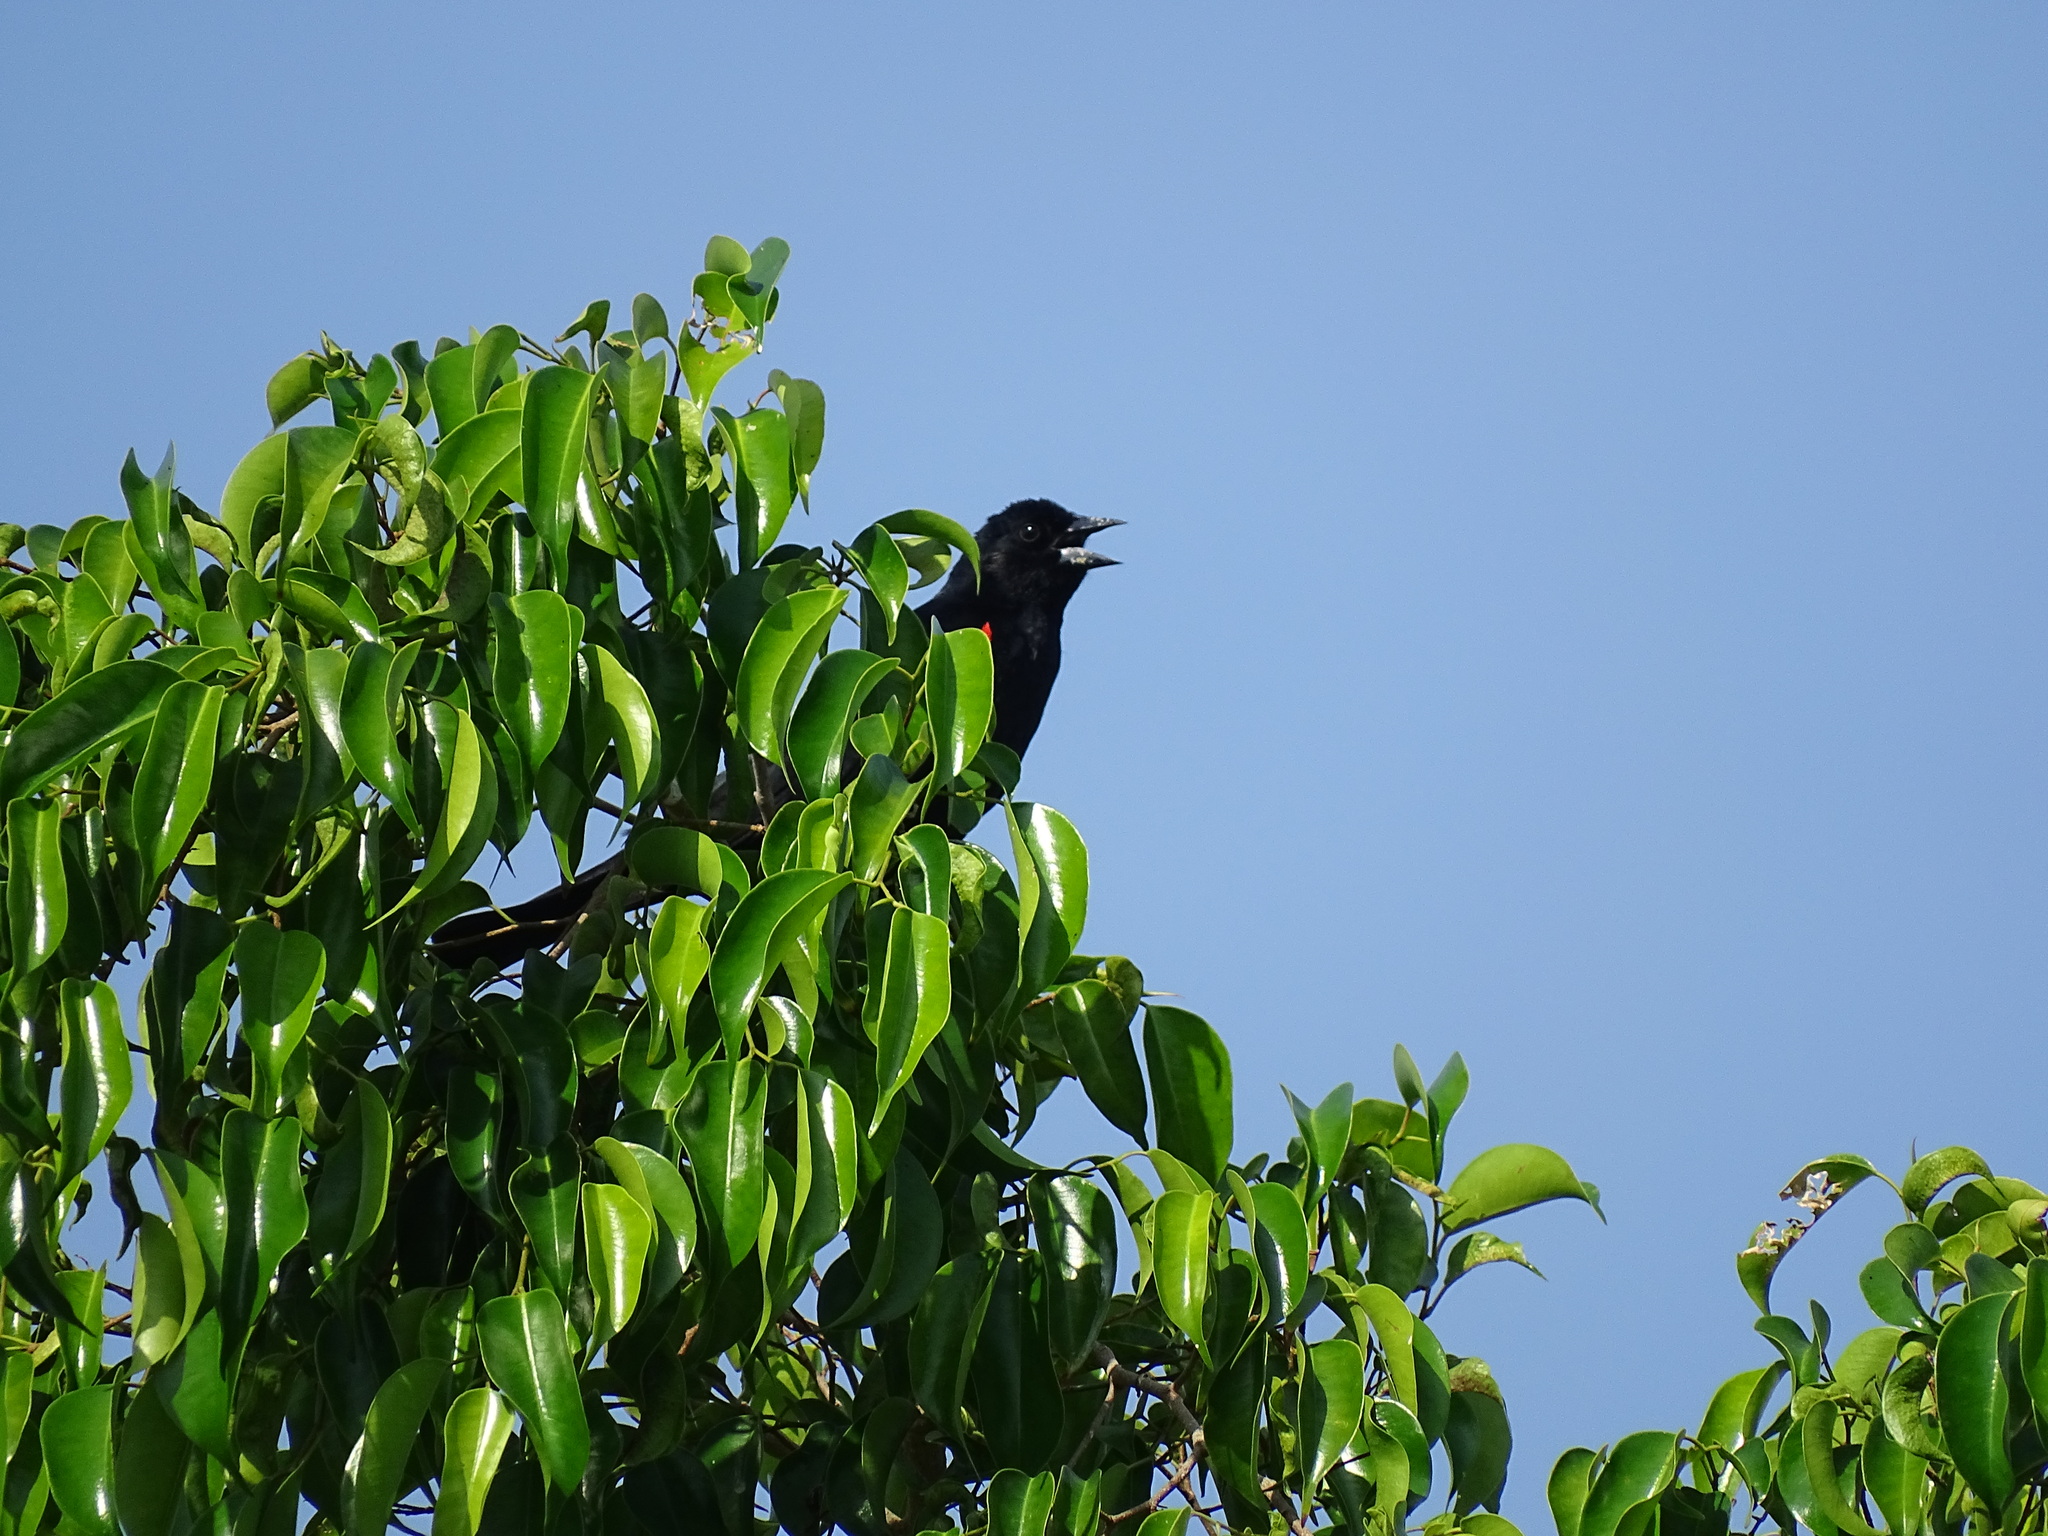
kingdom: Animalia
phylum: Chordata
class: Aves
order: Passeriformes
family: Icteridae
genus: Agelaius
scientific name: Agelaius phoeniceus
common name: Red-winged blackbird
